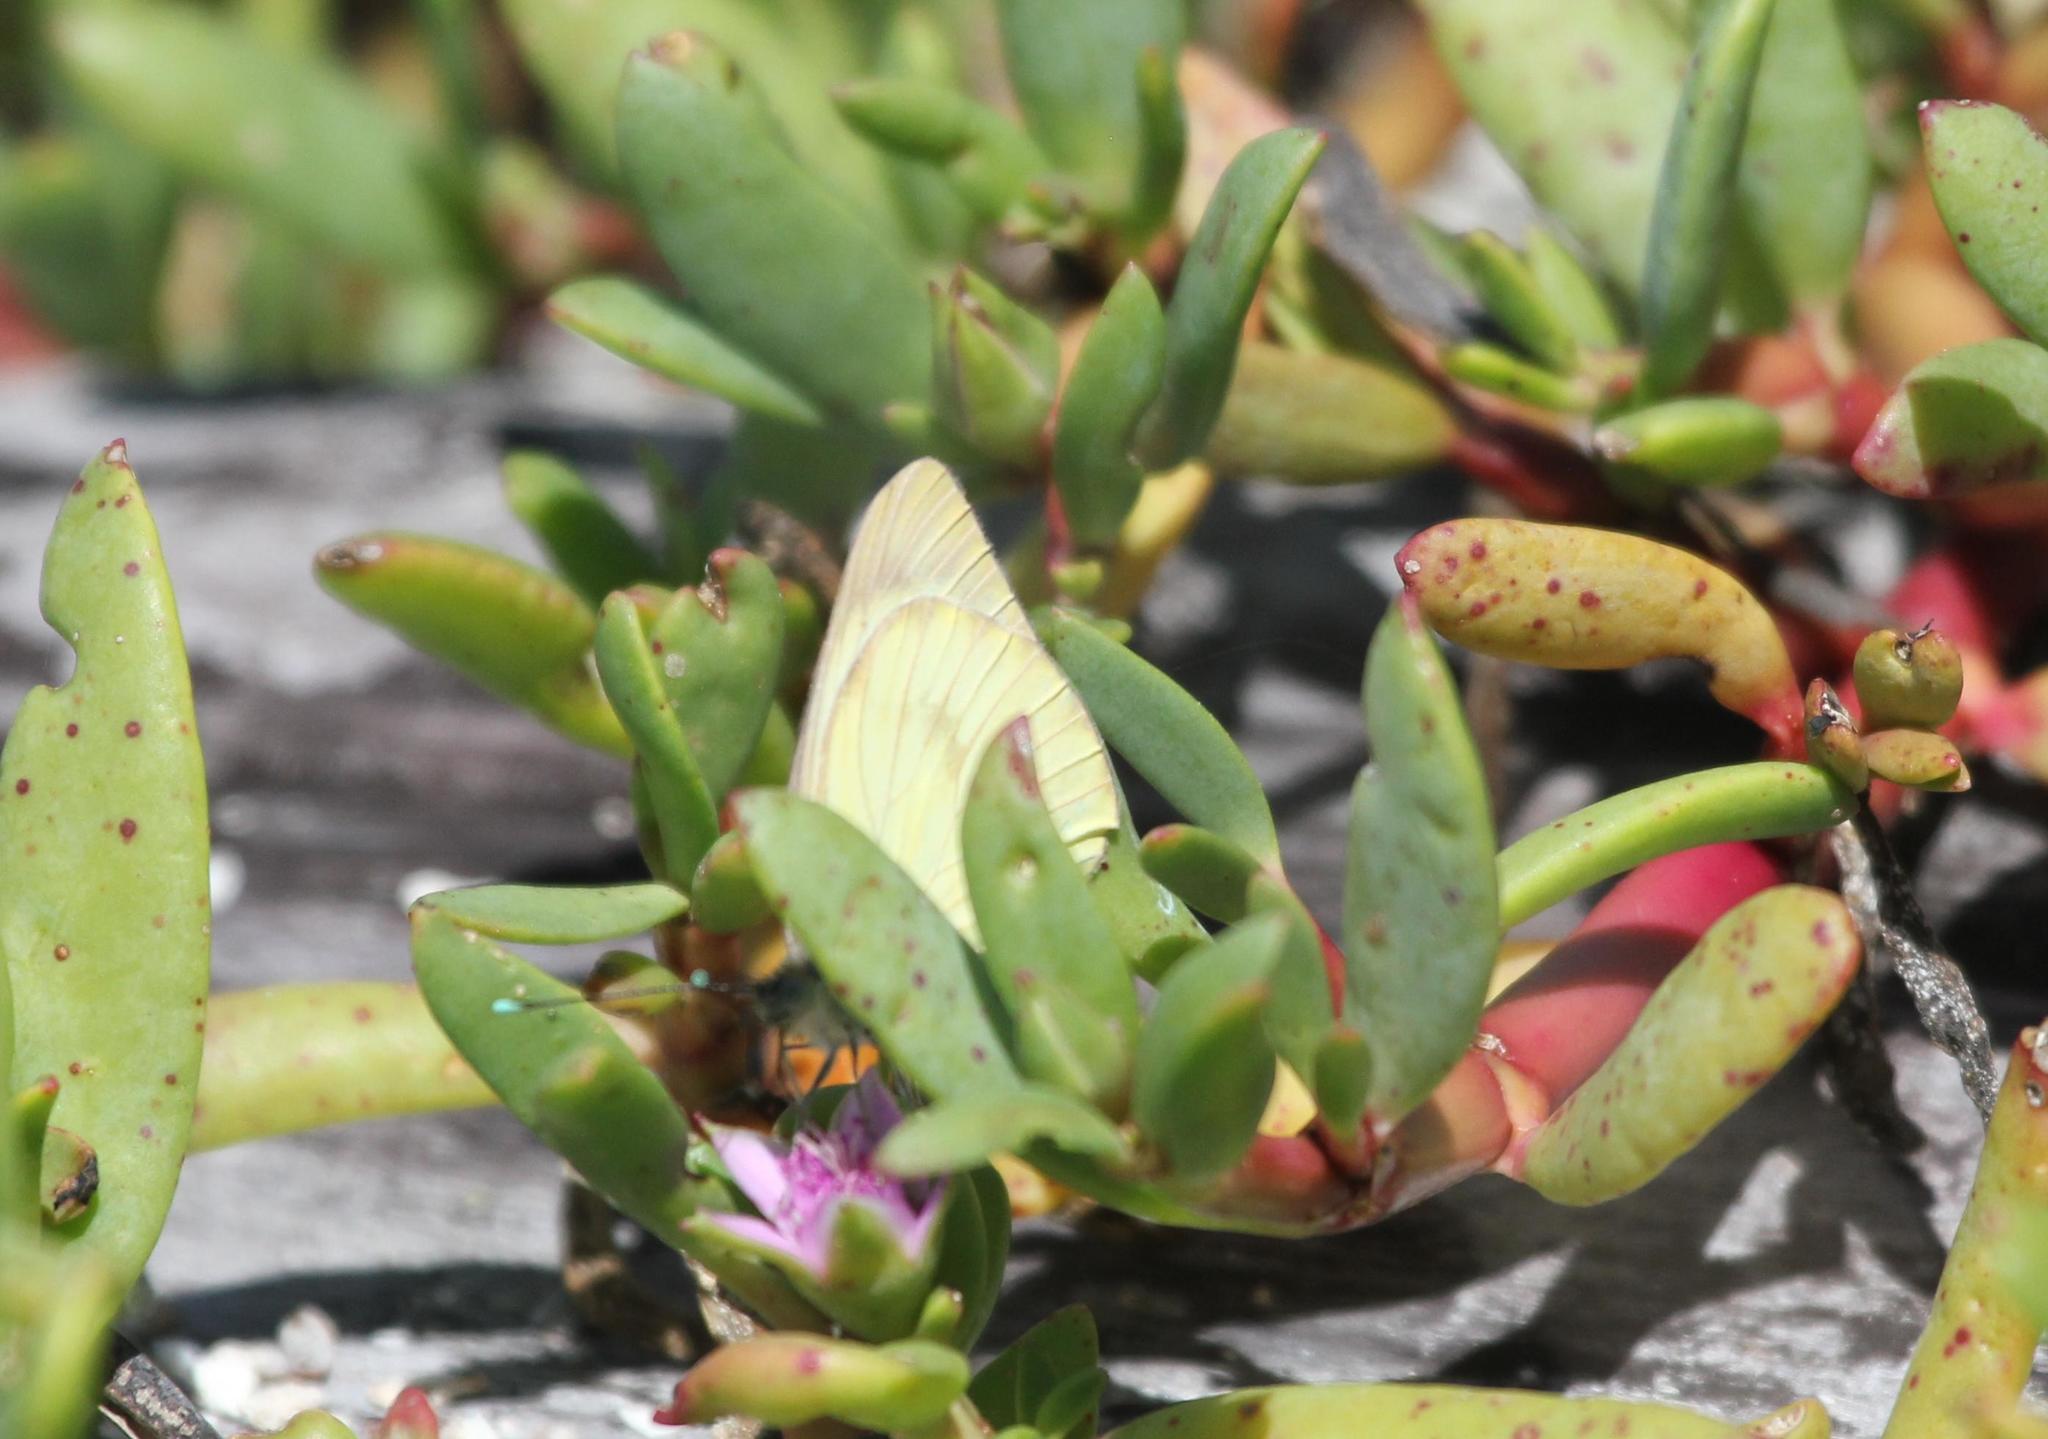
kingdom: Animalia
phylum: Arthropoda
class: Insecta
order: Lepidoptera
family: Pieridae
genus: Ascia
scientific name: Ascia monuste
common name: Great southern white
